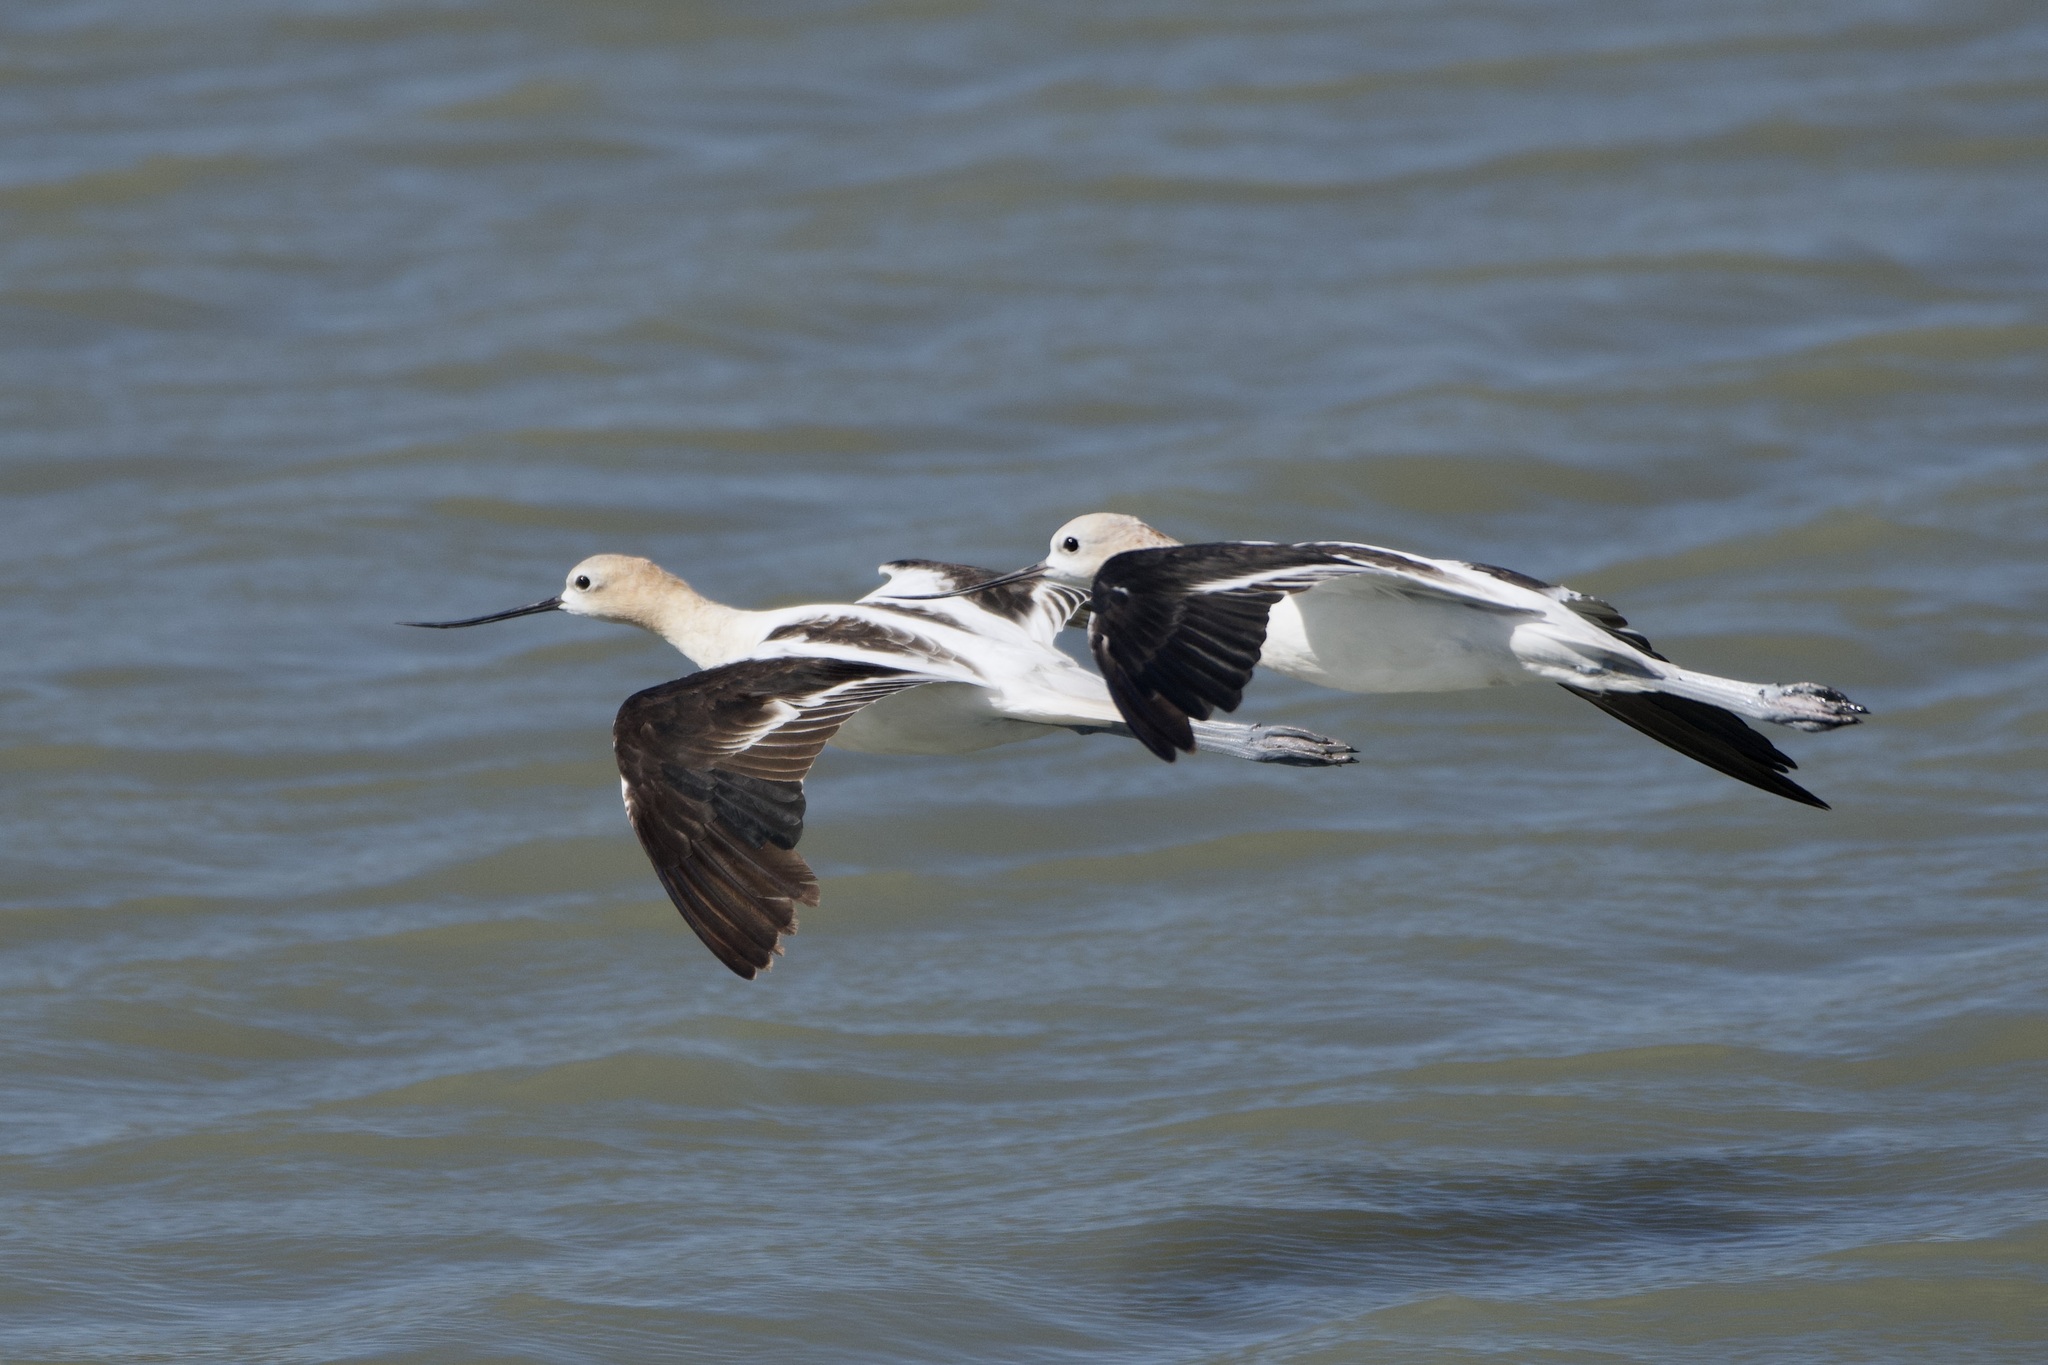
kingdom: Animalia
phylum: Chordata
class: Aves
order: Charadriiformes
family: Recurvirostridae
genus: Recurvirostra
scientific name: Recurvirostra americana
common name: American avocet
